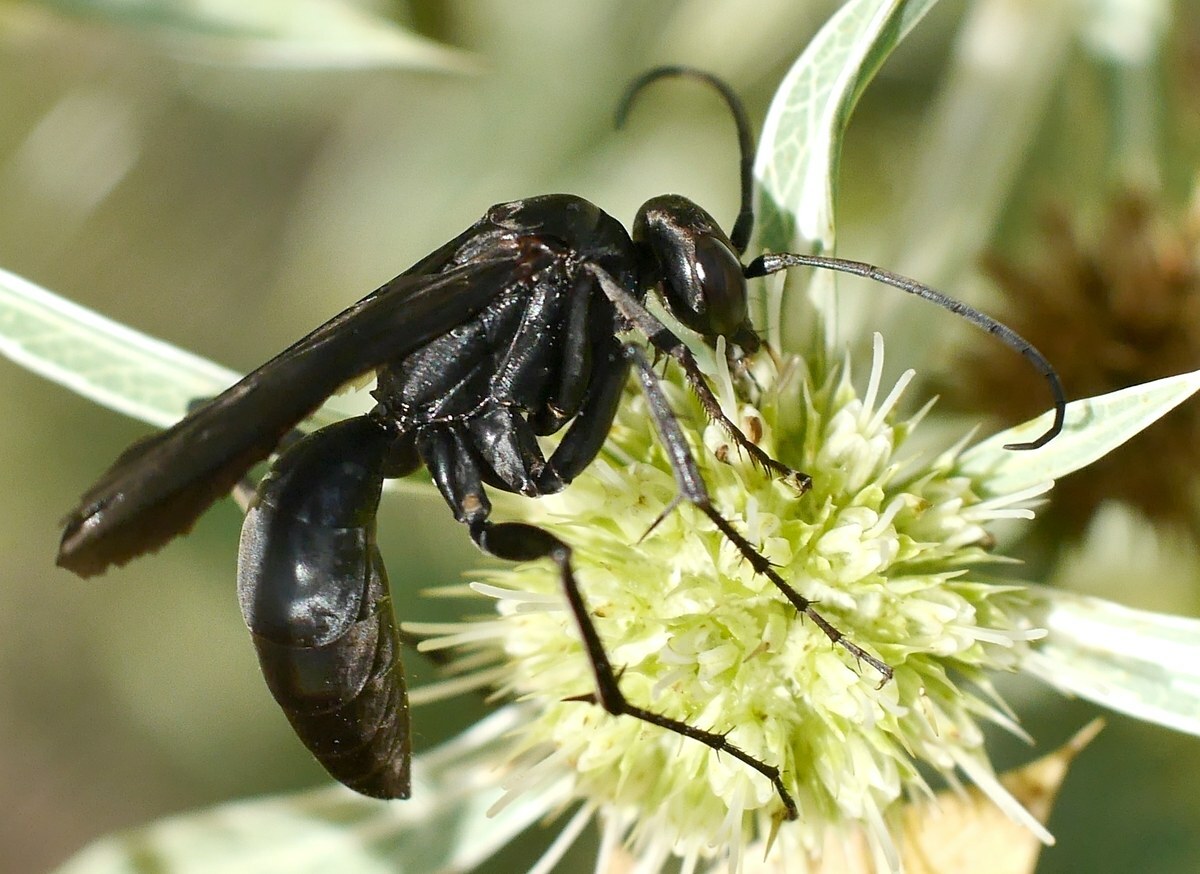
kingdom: Animalia
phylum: Arthropoda
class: Insecta
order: Hymenoptera
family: Pompilidae
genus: Agenioideus
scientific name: Agenioideus excisus
